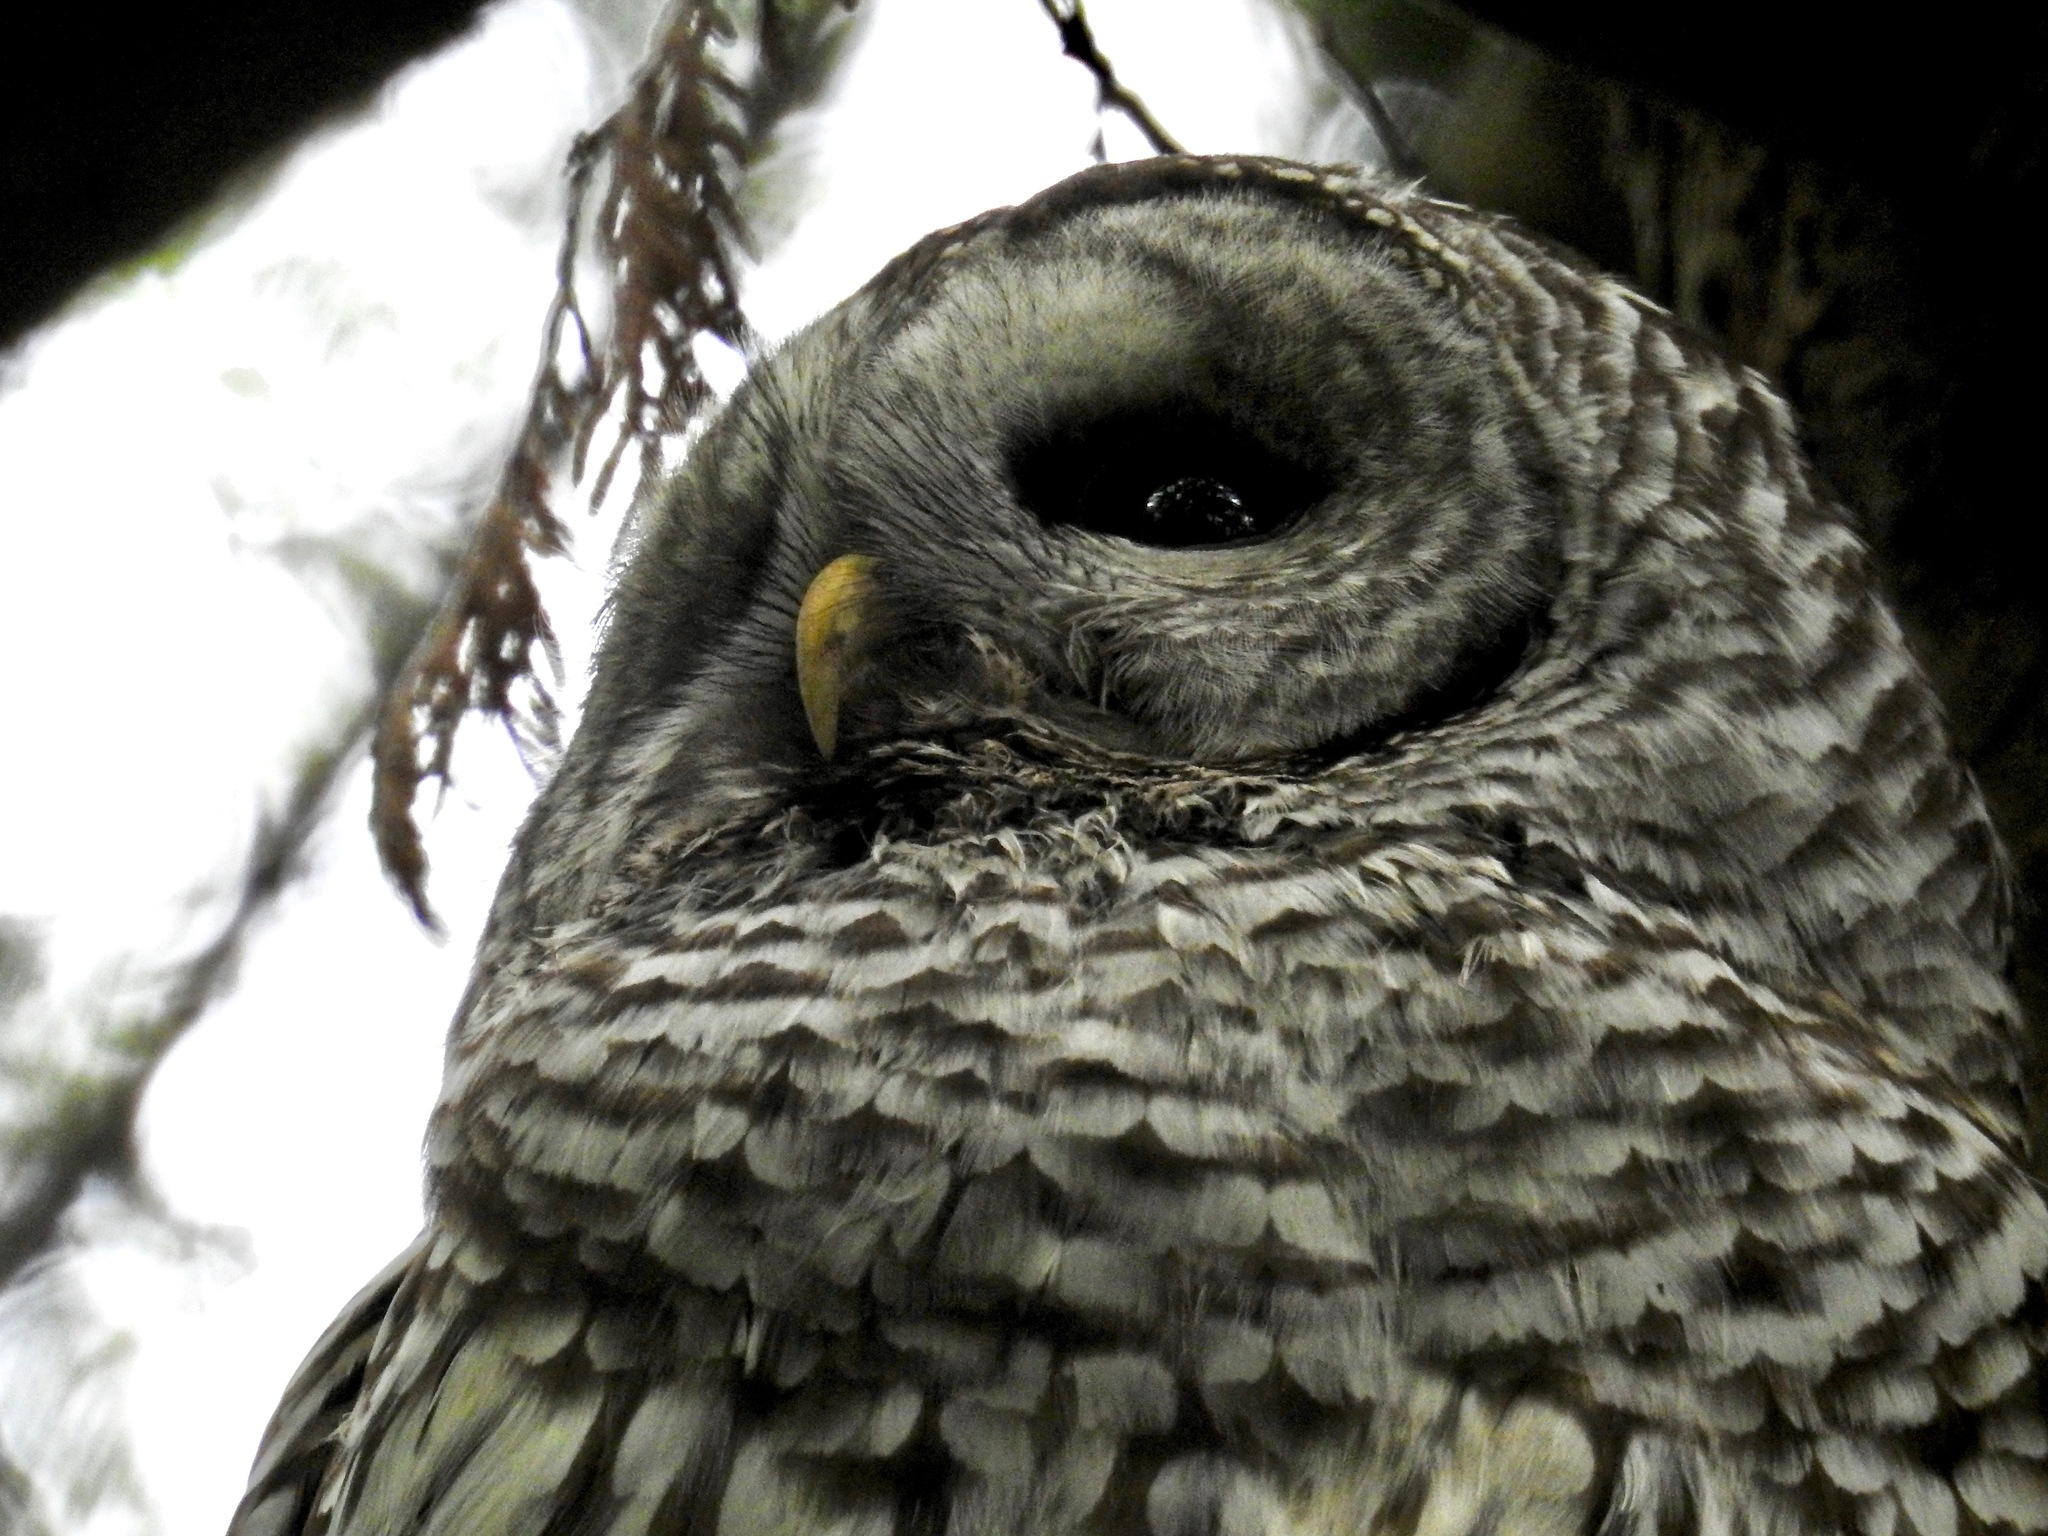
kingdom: Animalia
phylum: Chordata
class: Aves
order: Strigiformes
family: Strigidae
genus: Strix
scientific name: Strix varia
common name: Barred owl
